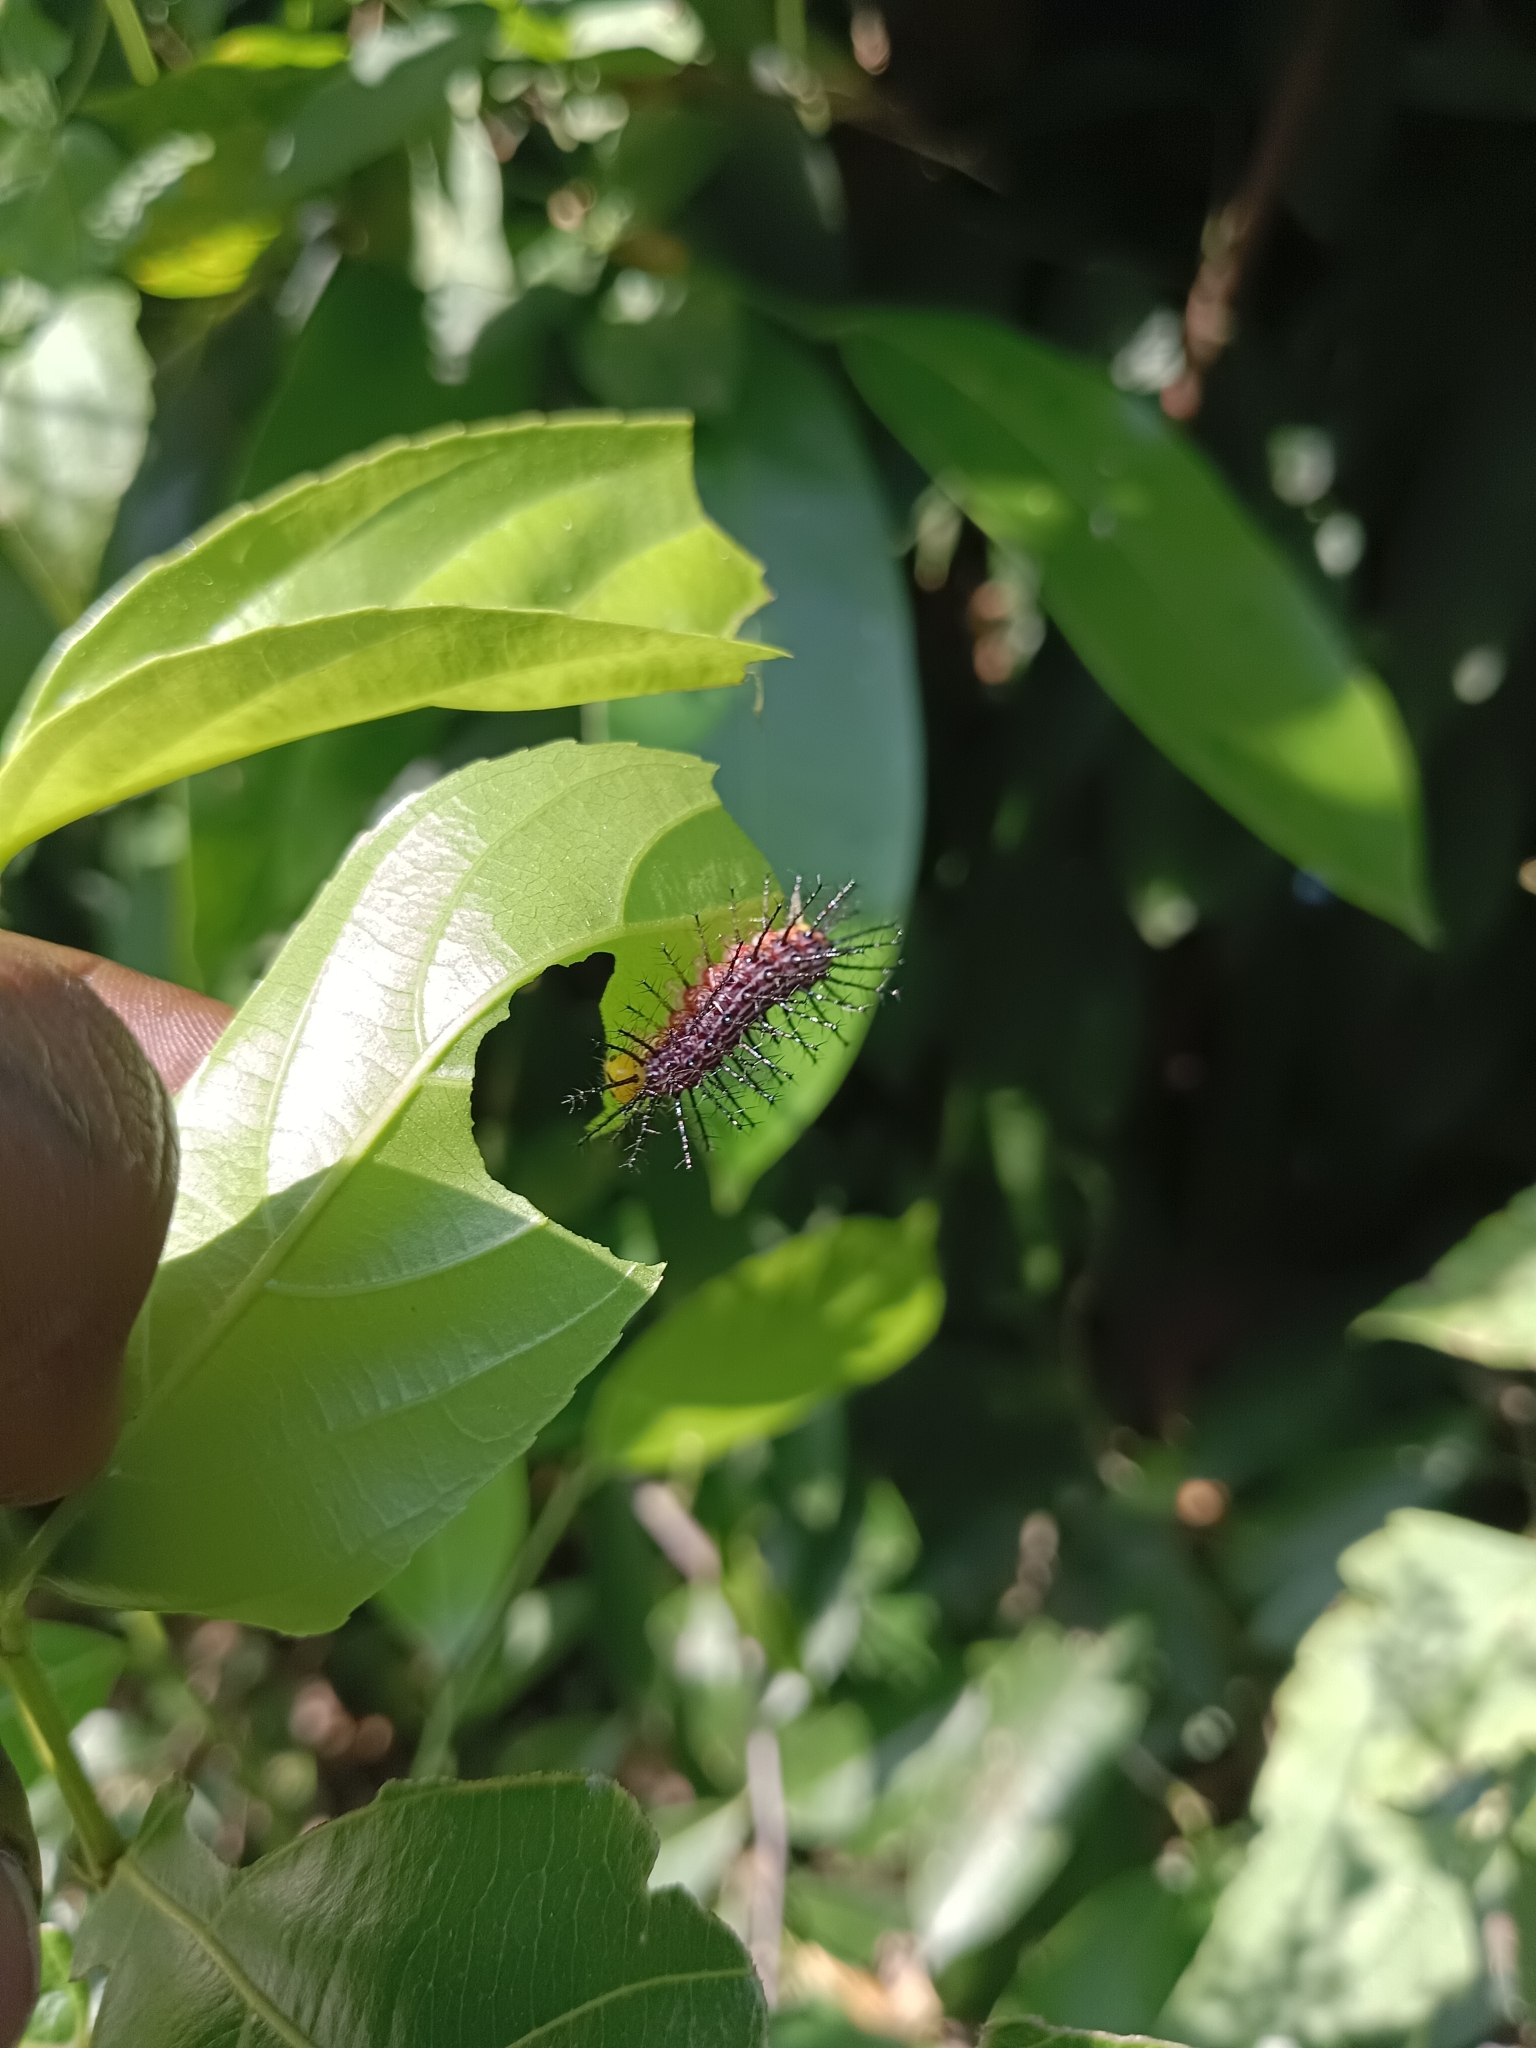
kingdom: Animalia
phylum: Arthropoda
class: Insecta
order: Lepidoptera
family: Nymphalidae
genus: Cirrochroa
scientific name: Cirrochroa thais
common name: Tamil yeoman
